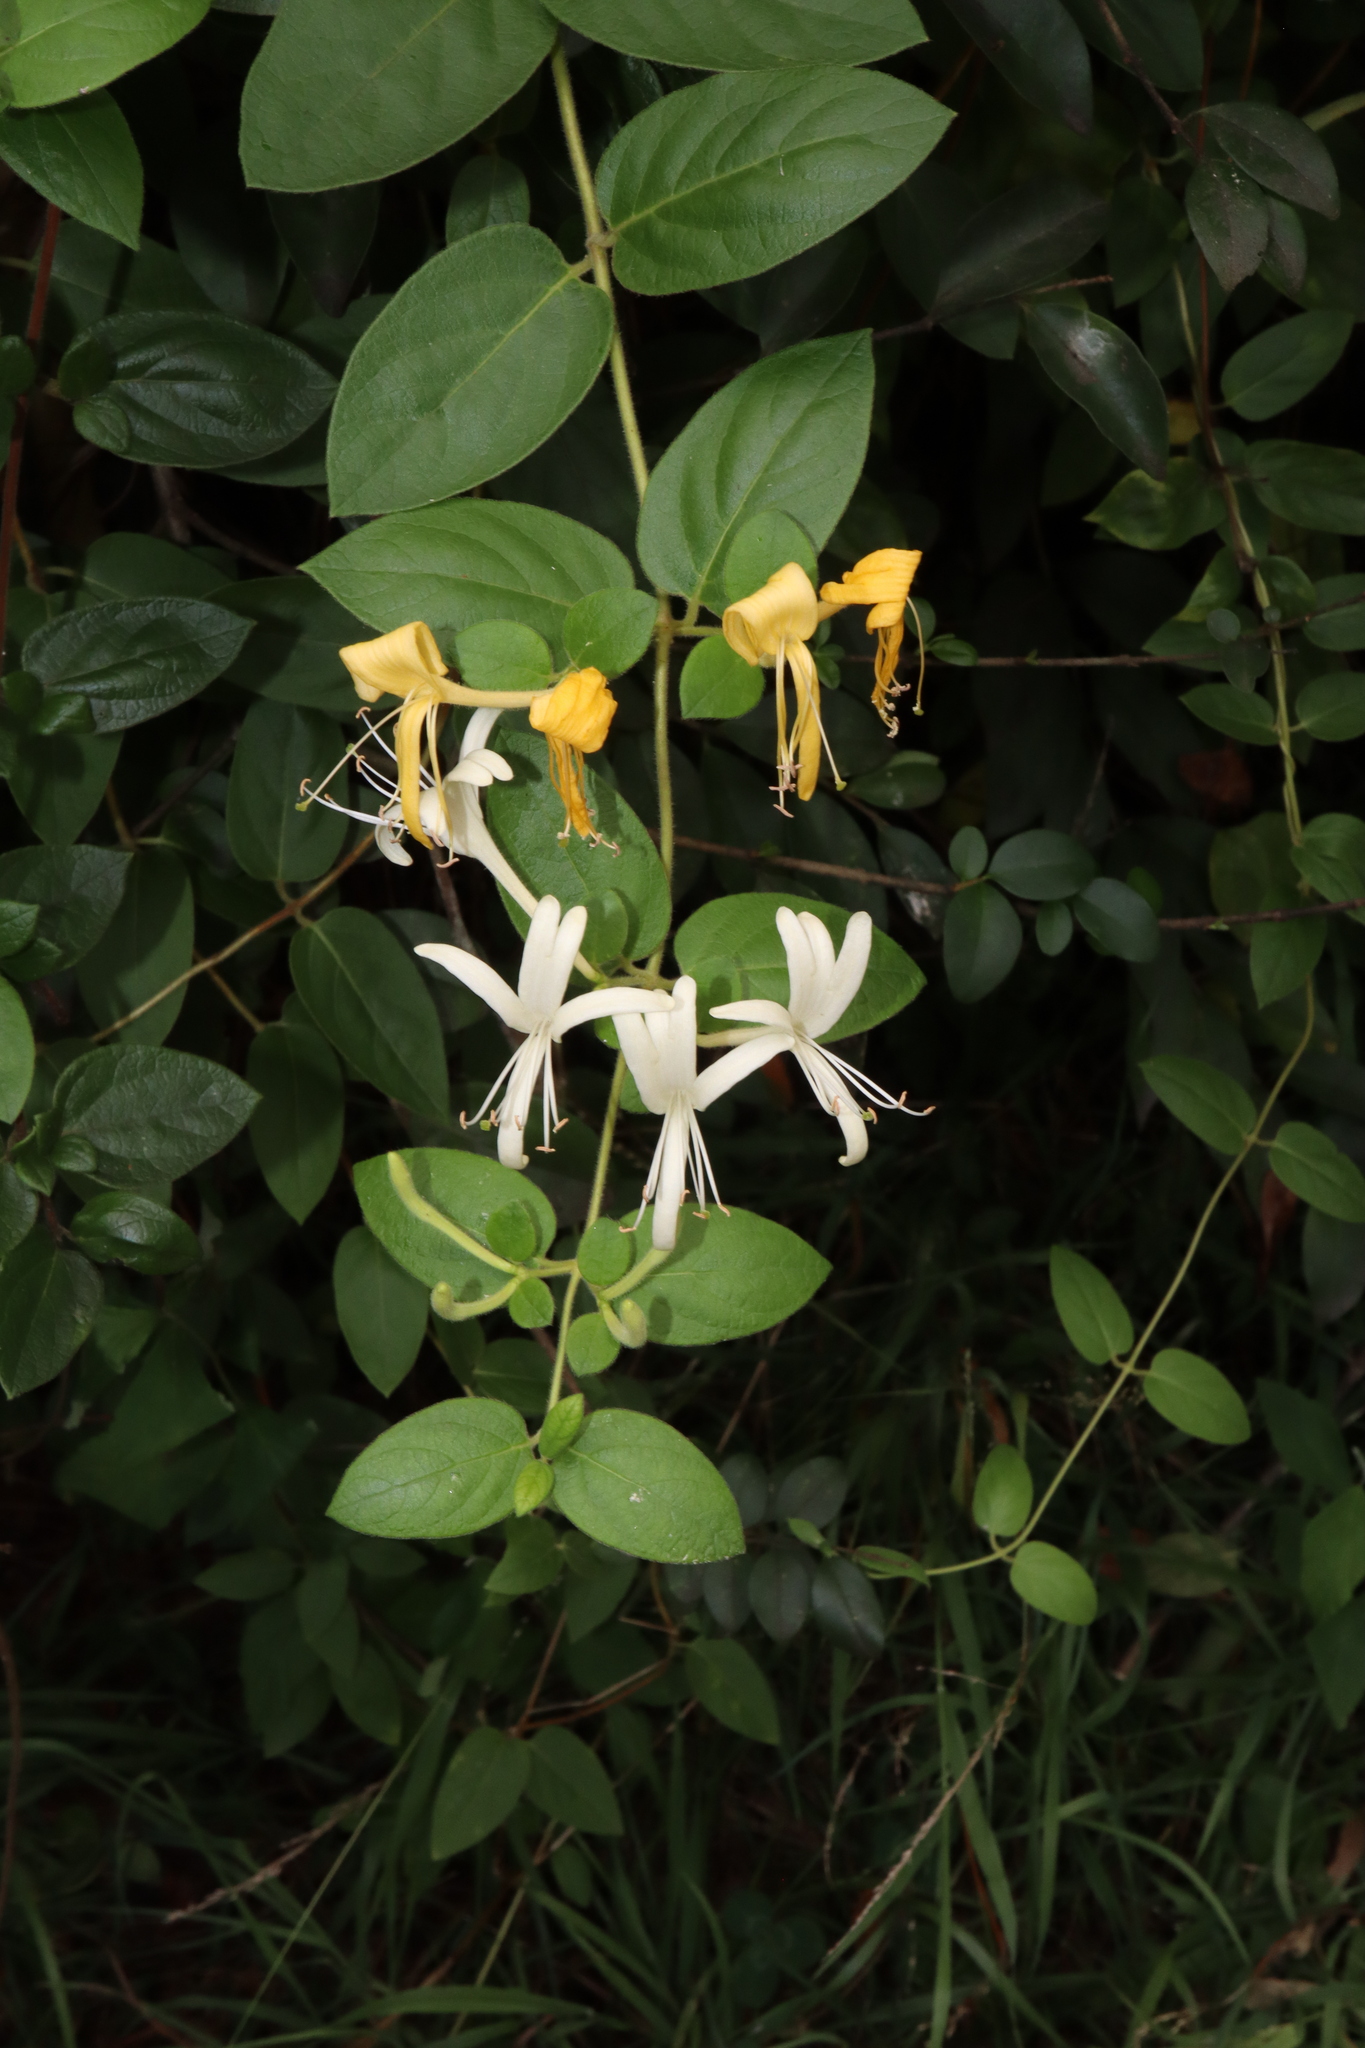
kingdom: Plantae
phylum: Tracheophyta
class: Magnoliopsida
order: Dipsacales
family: Caprifoliaceae
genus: Lonicera
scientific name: Lonicera japonica
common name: Japanese honeysuckle
